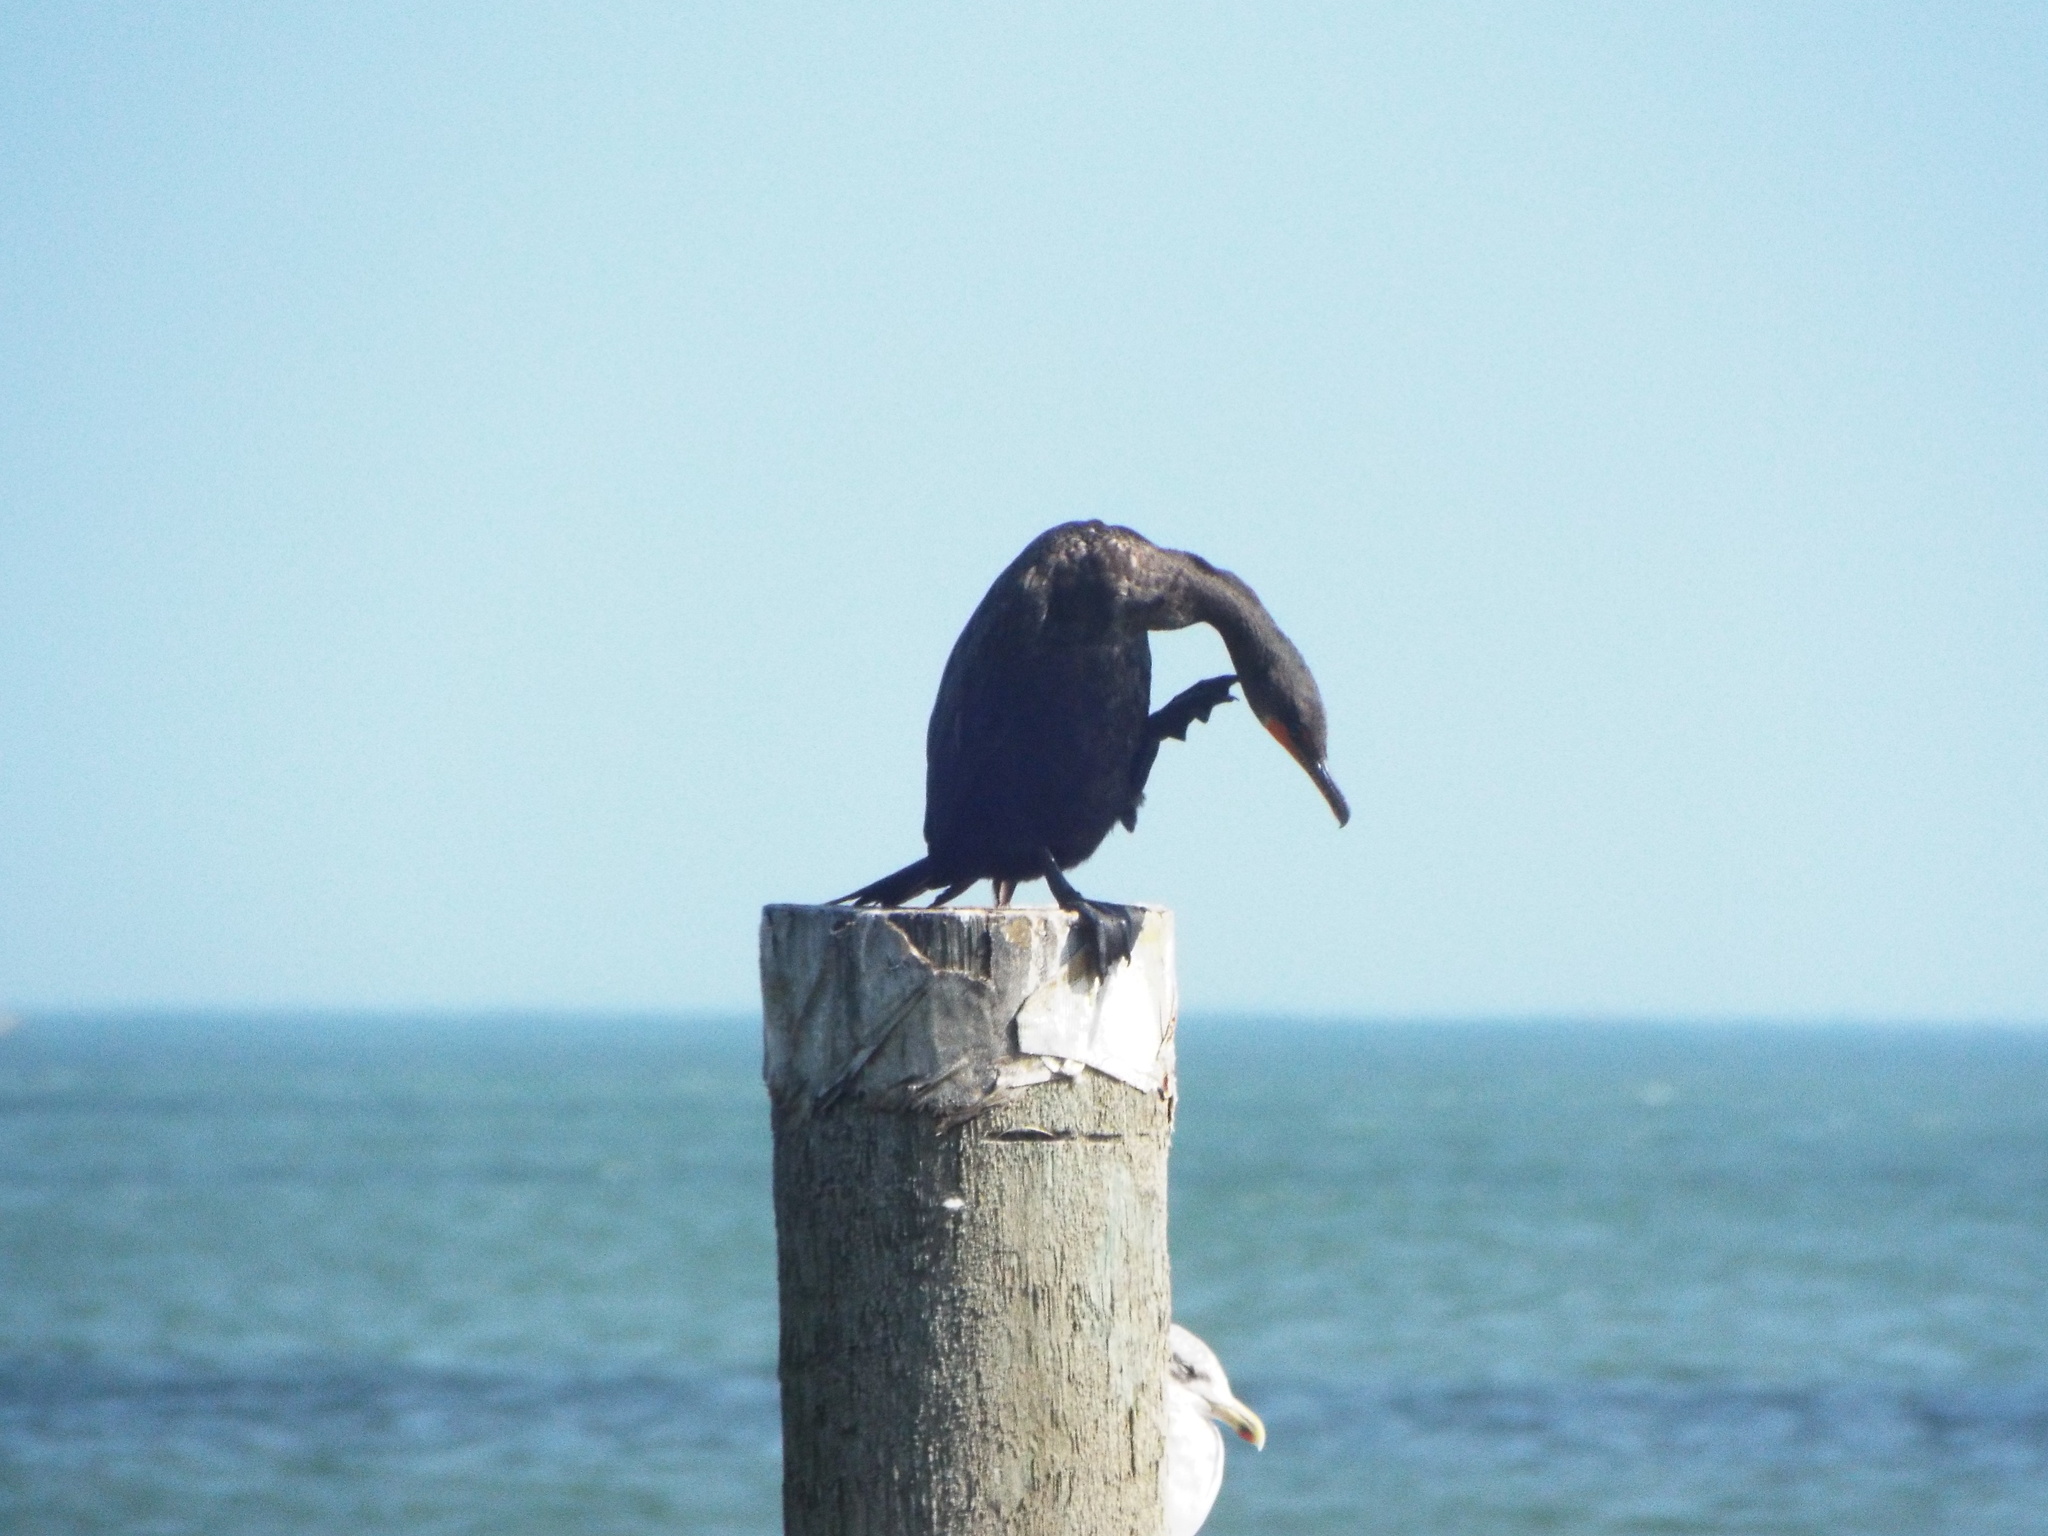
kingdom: Animalia
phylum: Chordata
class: Aves
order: Suliformes
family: Phalacrocoracidae
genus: Phalacrocorax
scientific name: Phalacrocorax auritus
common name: Double-crested cormorant
